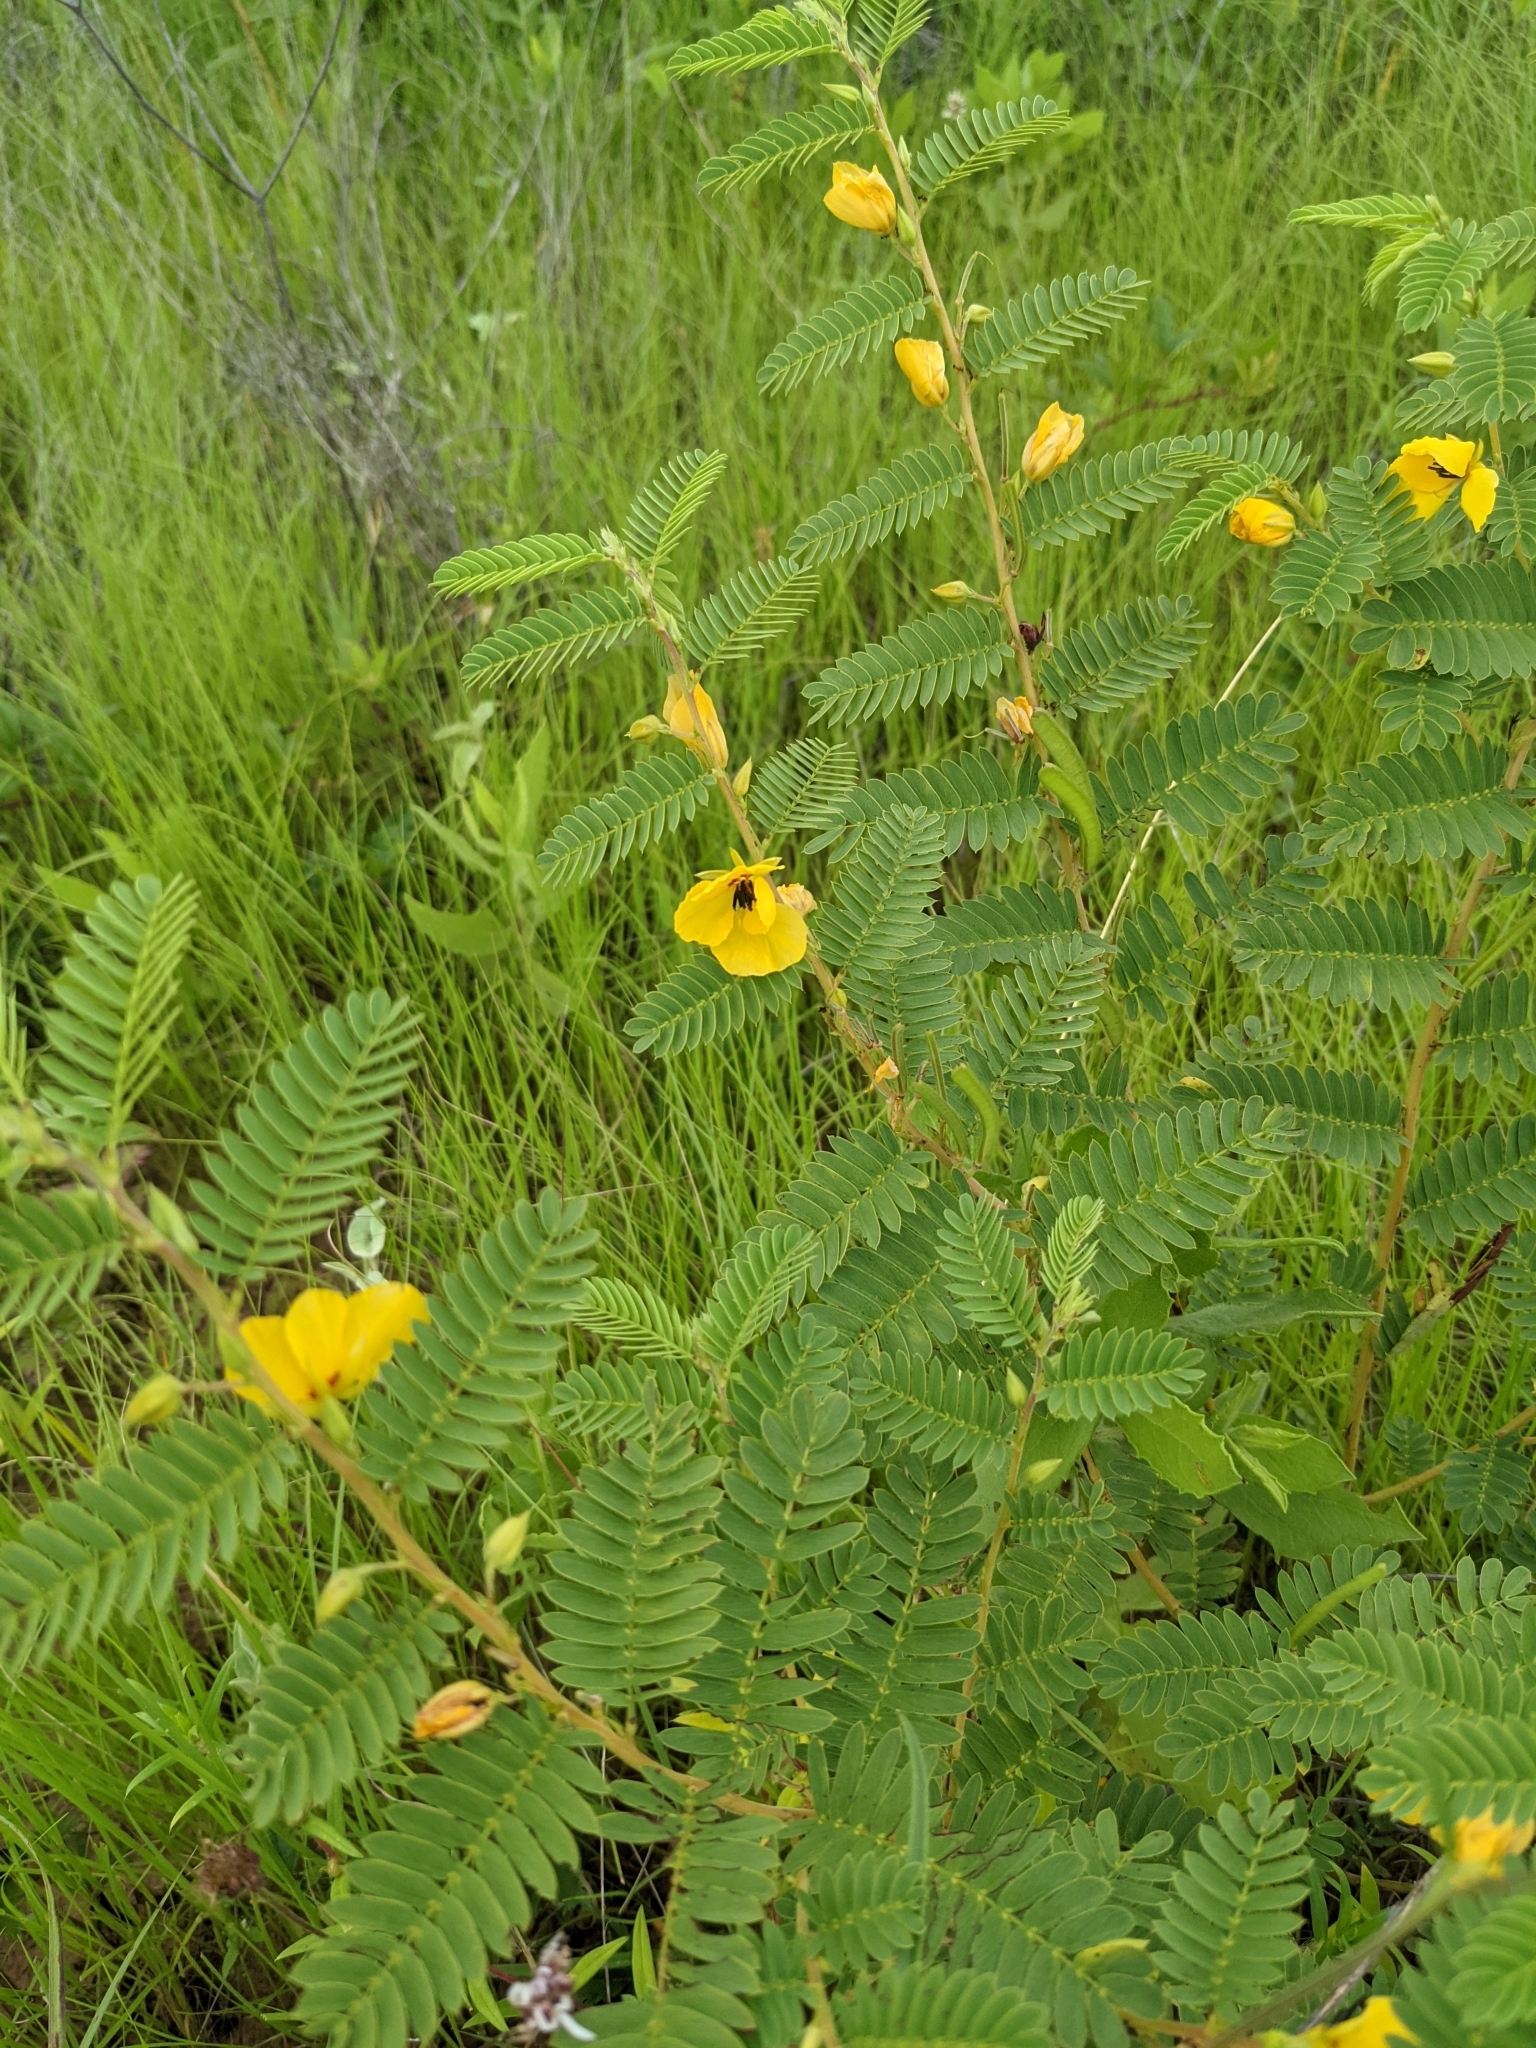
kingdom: Plantae
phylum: Tracheophyta
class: Magnoliopsida
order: Fabales
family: Fabaceae
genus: Chamaecrista
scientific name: Chamaecrista fasciculata
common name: Golden cassia
